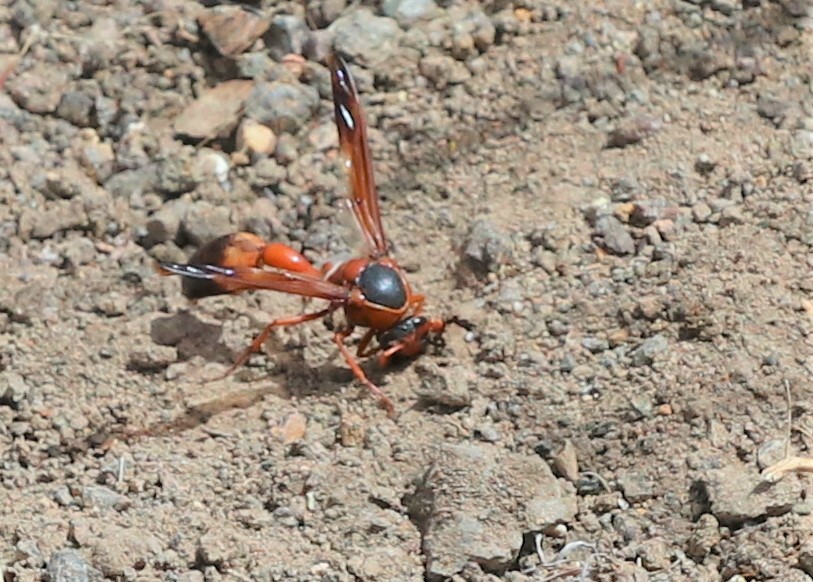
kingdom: Animalia
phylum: Arthropoda
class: Insecta
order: Hymenoptera
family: Eumenidae
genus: Delta
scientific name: Delta dimidiatipenne
